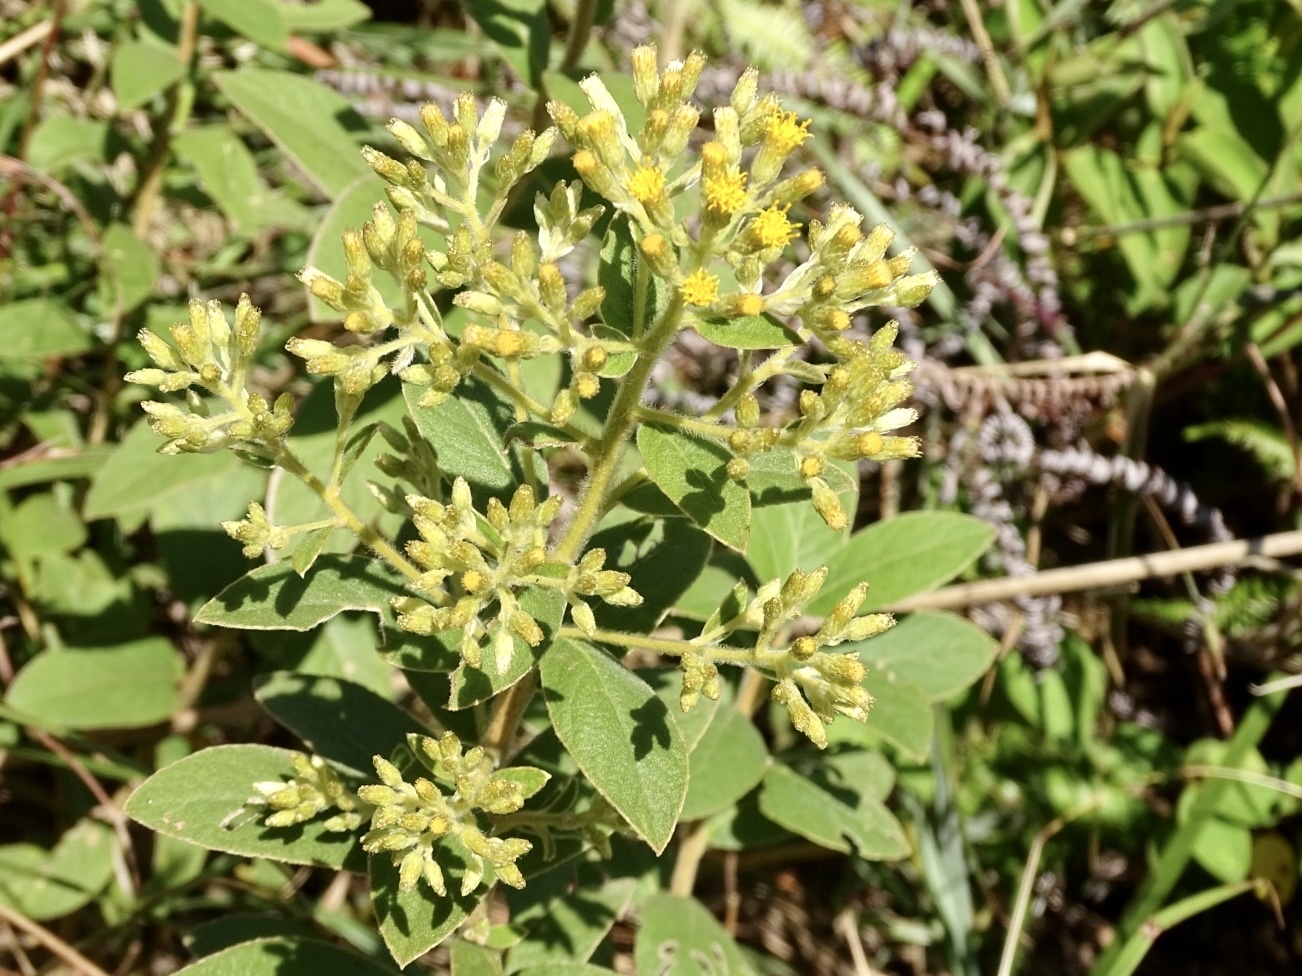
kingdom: Plantae
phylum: Tracheophyta
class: Magnoliopsida
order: Asterales
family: Asteraceae
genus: Duhaldea
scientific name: Duhaldea cappa
